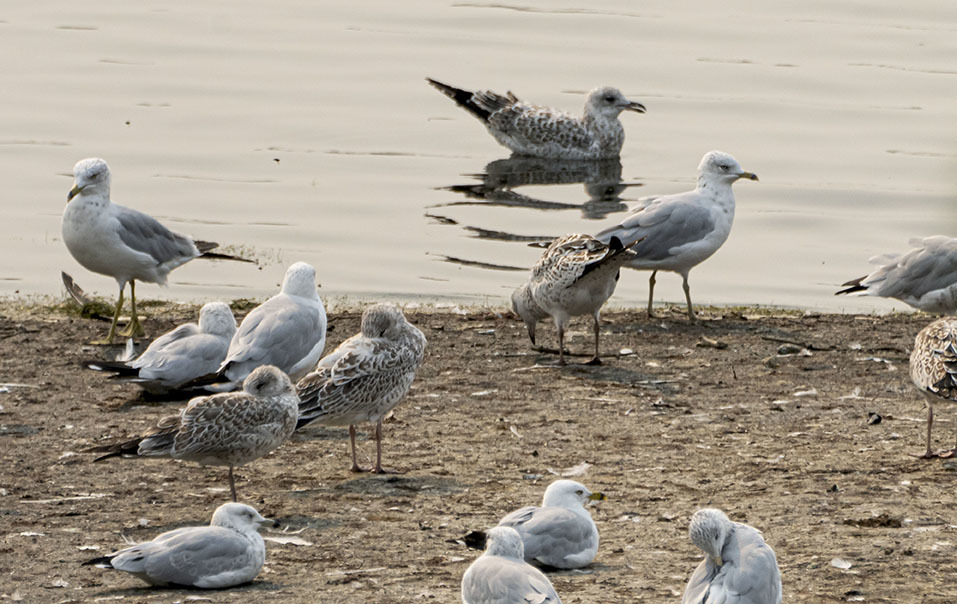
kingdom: Animalia
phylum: Chordata
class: Aves
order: Charadriiformes
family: Laridae
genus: Larus
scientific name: Larus delawarensis
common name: Ring-billed gull
